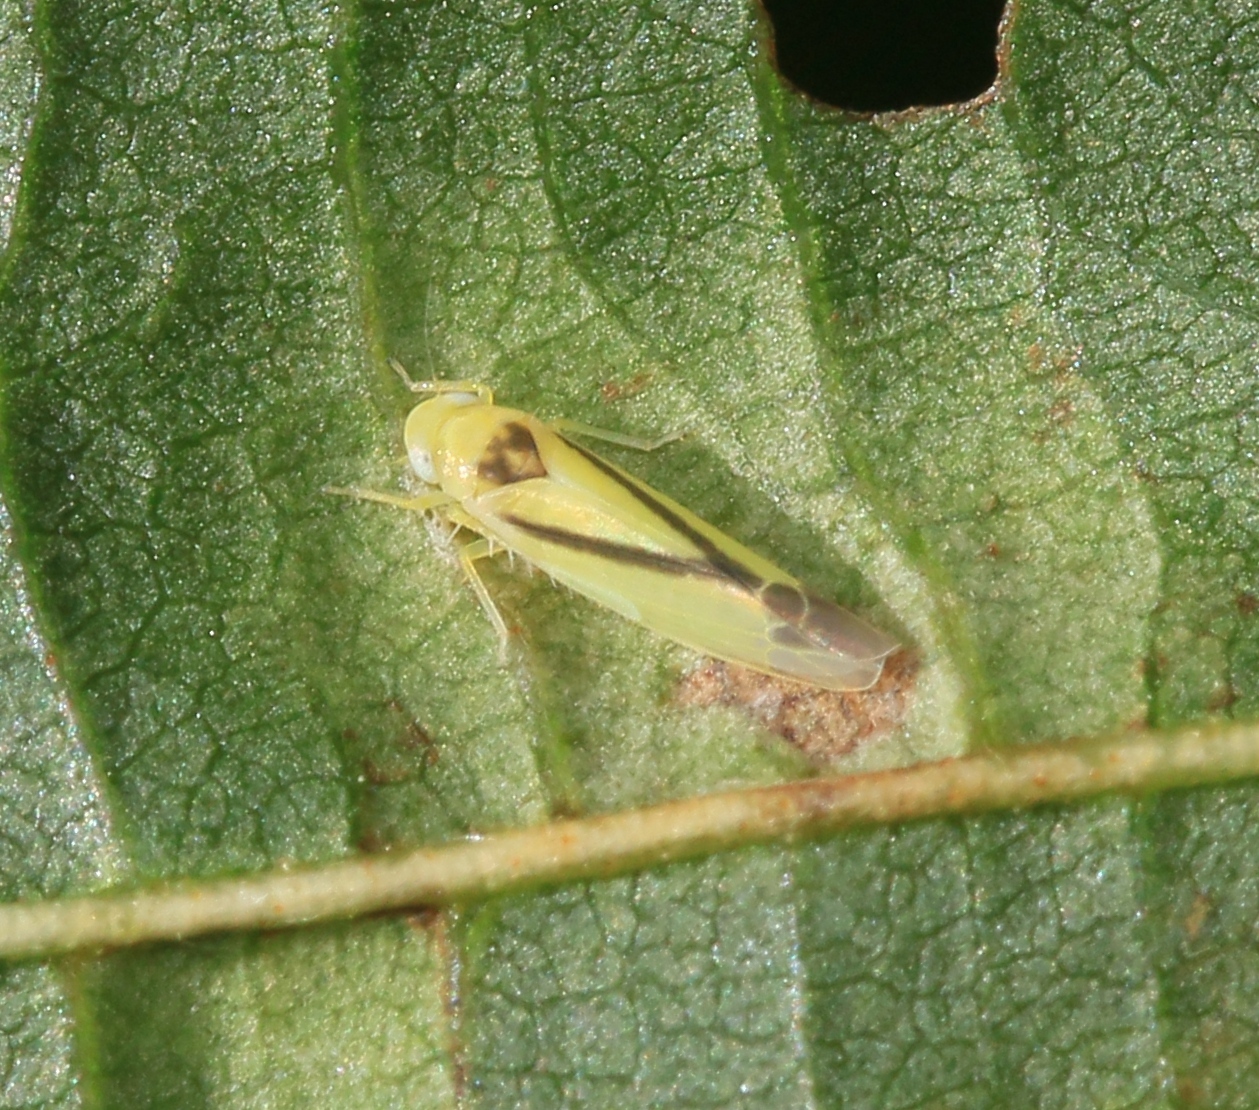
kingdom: Animalia
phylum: Arthropoda
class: Insecta
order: Hemiptera
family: Cicadellidae
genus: Edwardsiana
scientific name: Edwardsiana geometrica
